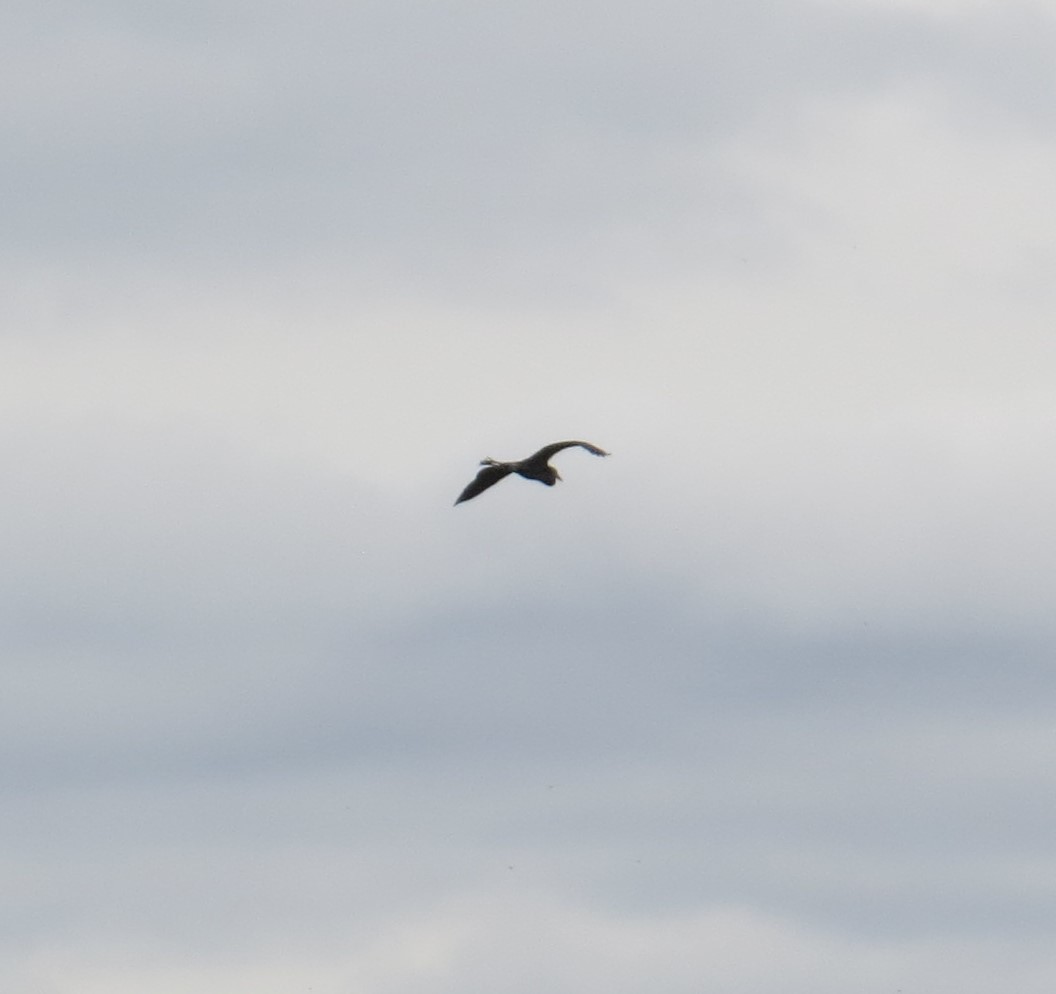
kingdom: Animalia
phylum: Chordata
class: Aves
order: Pelecaniformes
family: Ardeidae
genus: Ardea
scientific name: Ardea herodias
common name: Great blue heron
